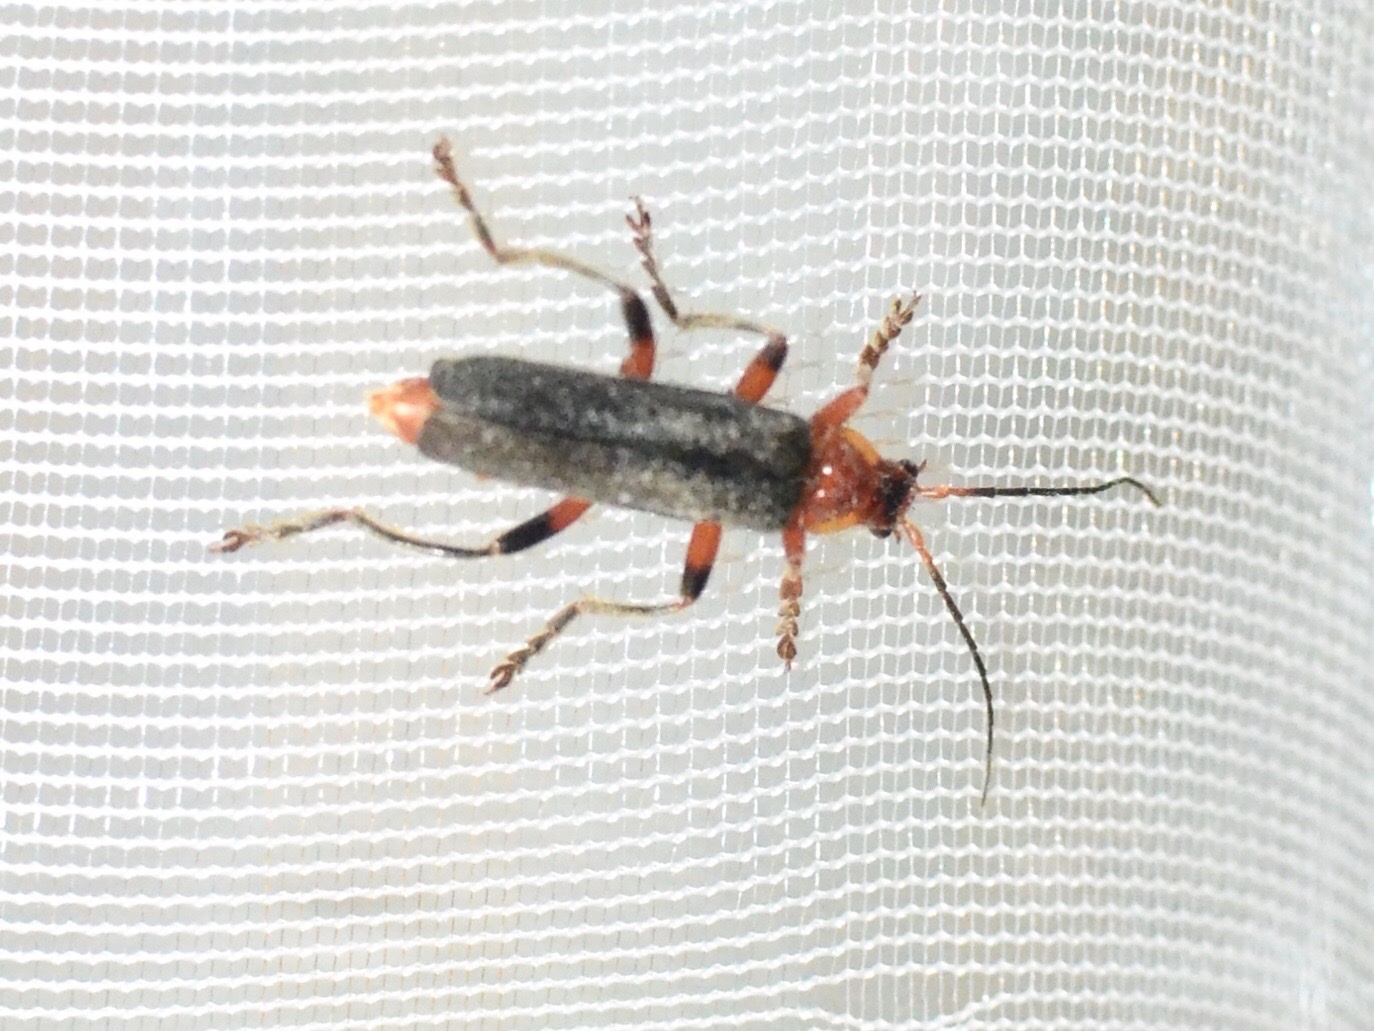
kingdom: Animalia
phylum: Arthropoda
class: Insecta
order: Coleoptera
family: Cantharidae
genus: Cantharis
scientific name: Cantharis
